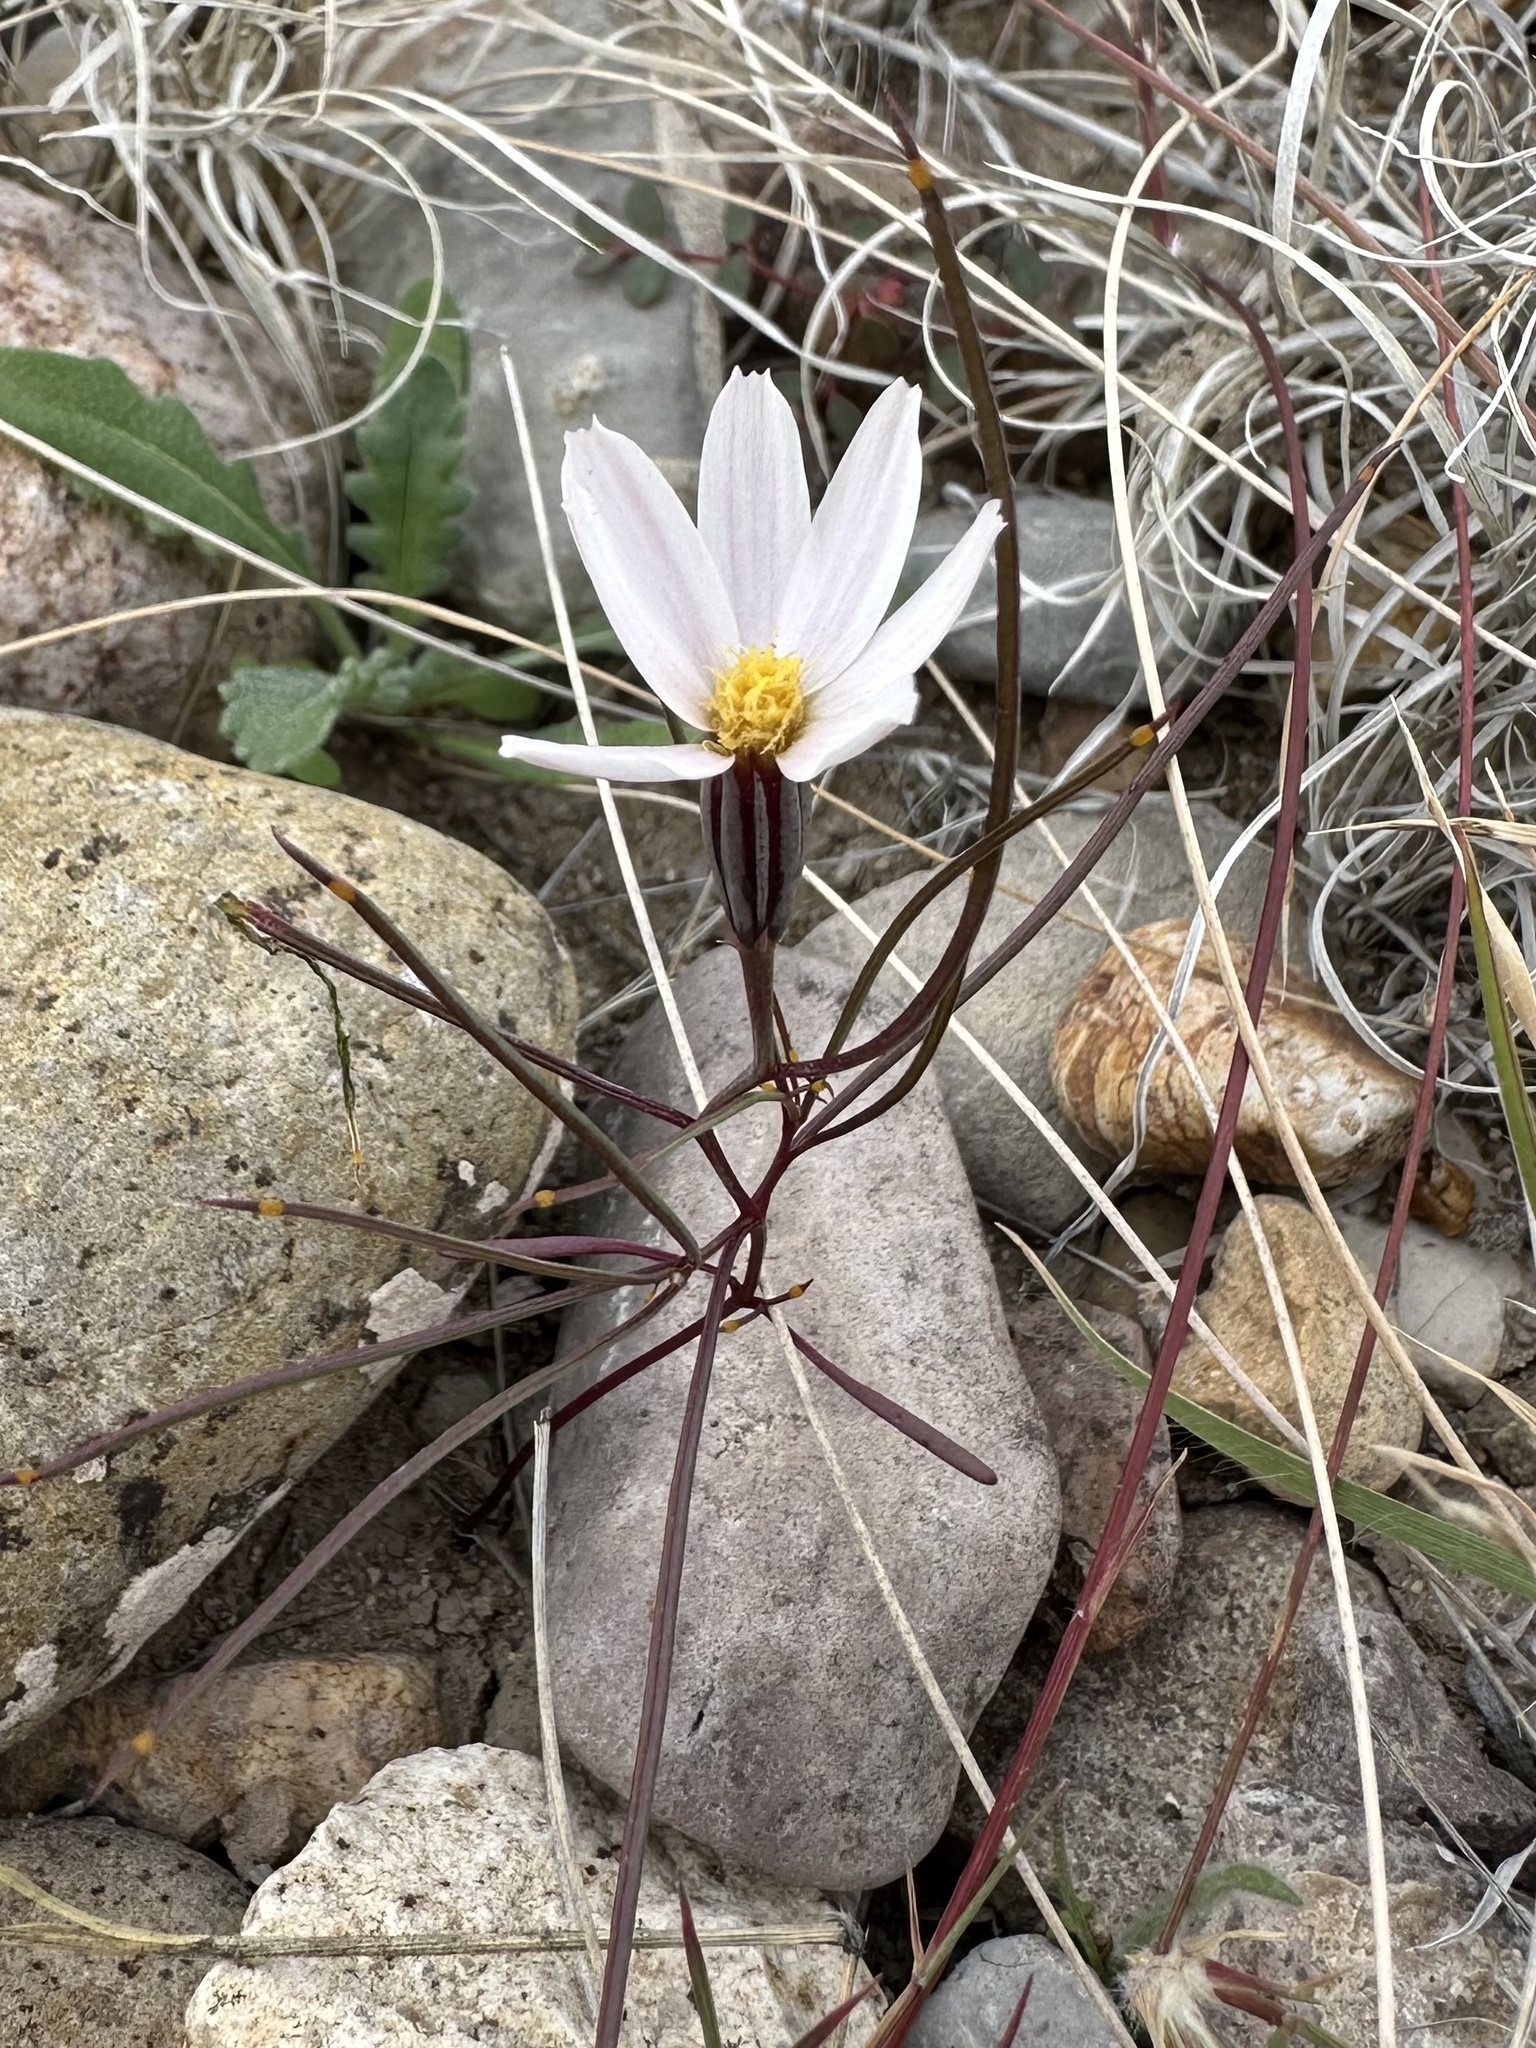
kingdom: Plantae
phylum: Tracheophyta
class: Magnoliopsida
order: Asterales
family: Asteraceae
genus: Nicolletia
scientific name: Nicolletia edwardsii
